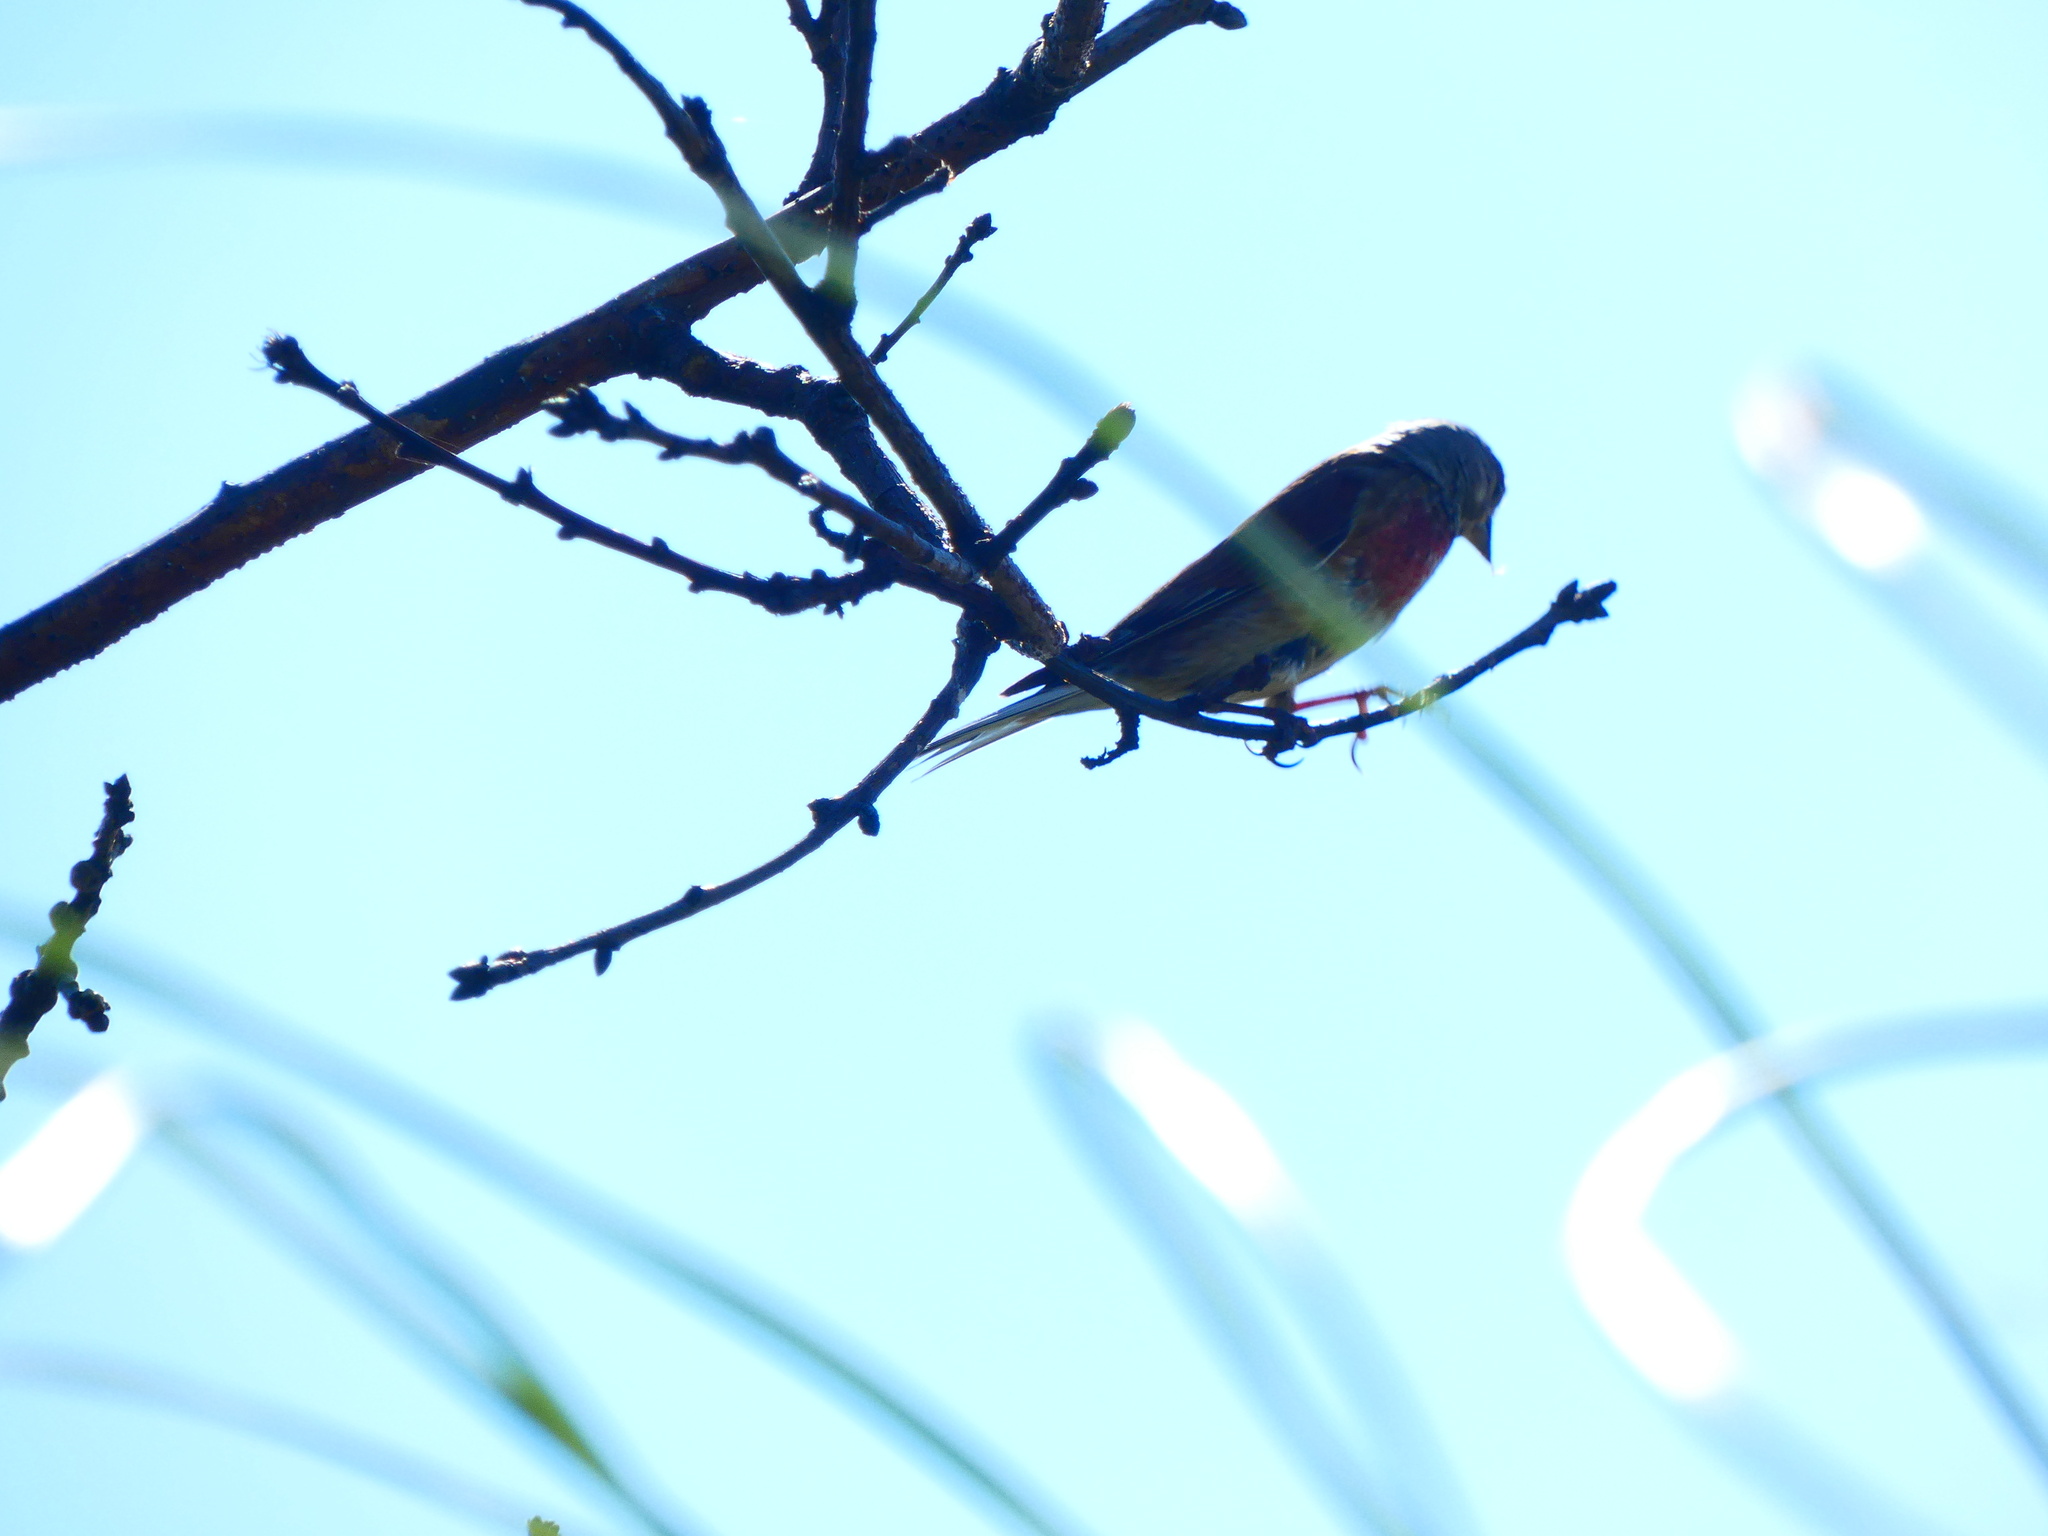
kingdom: Animalia
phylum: Chordata
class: Aves
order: Passeriformes
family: Fringillidae
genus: Linaria
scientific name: Linaria cannabina
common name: Common linnet
